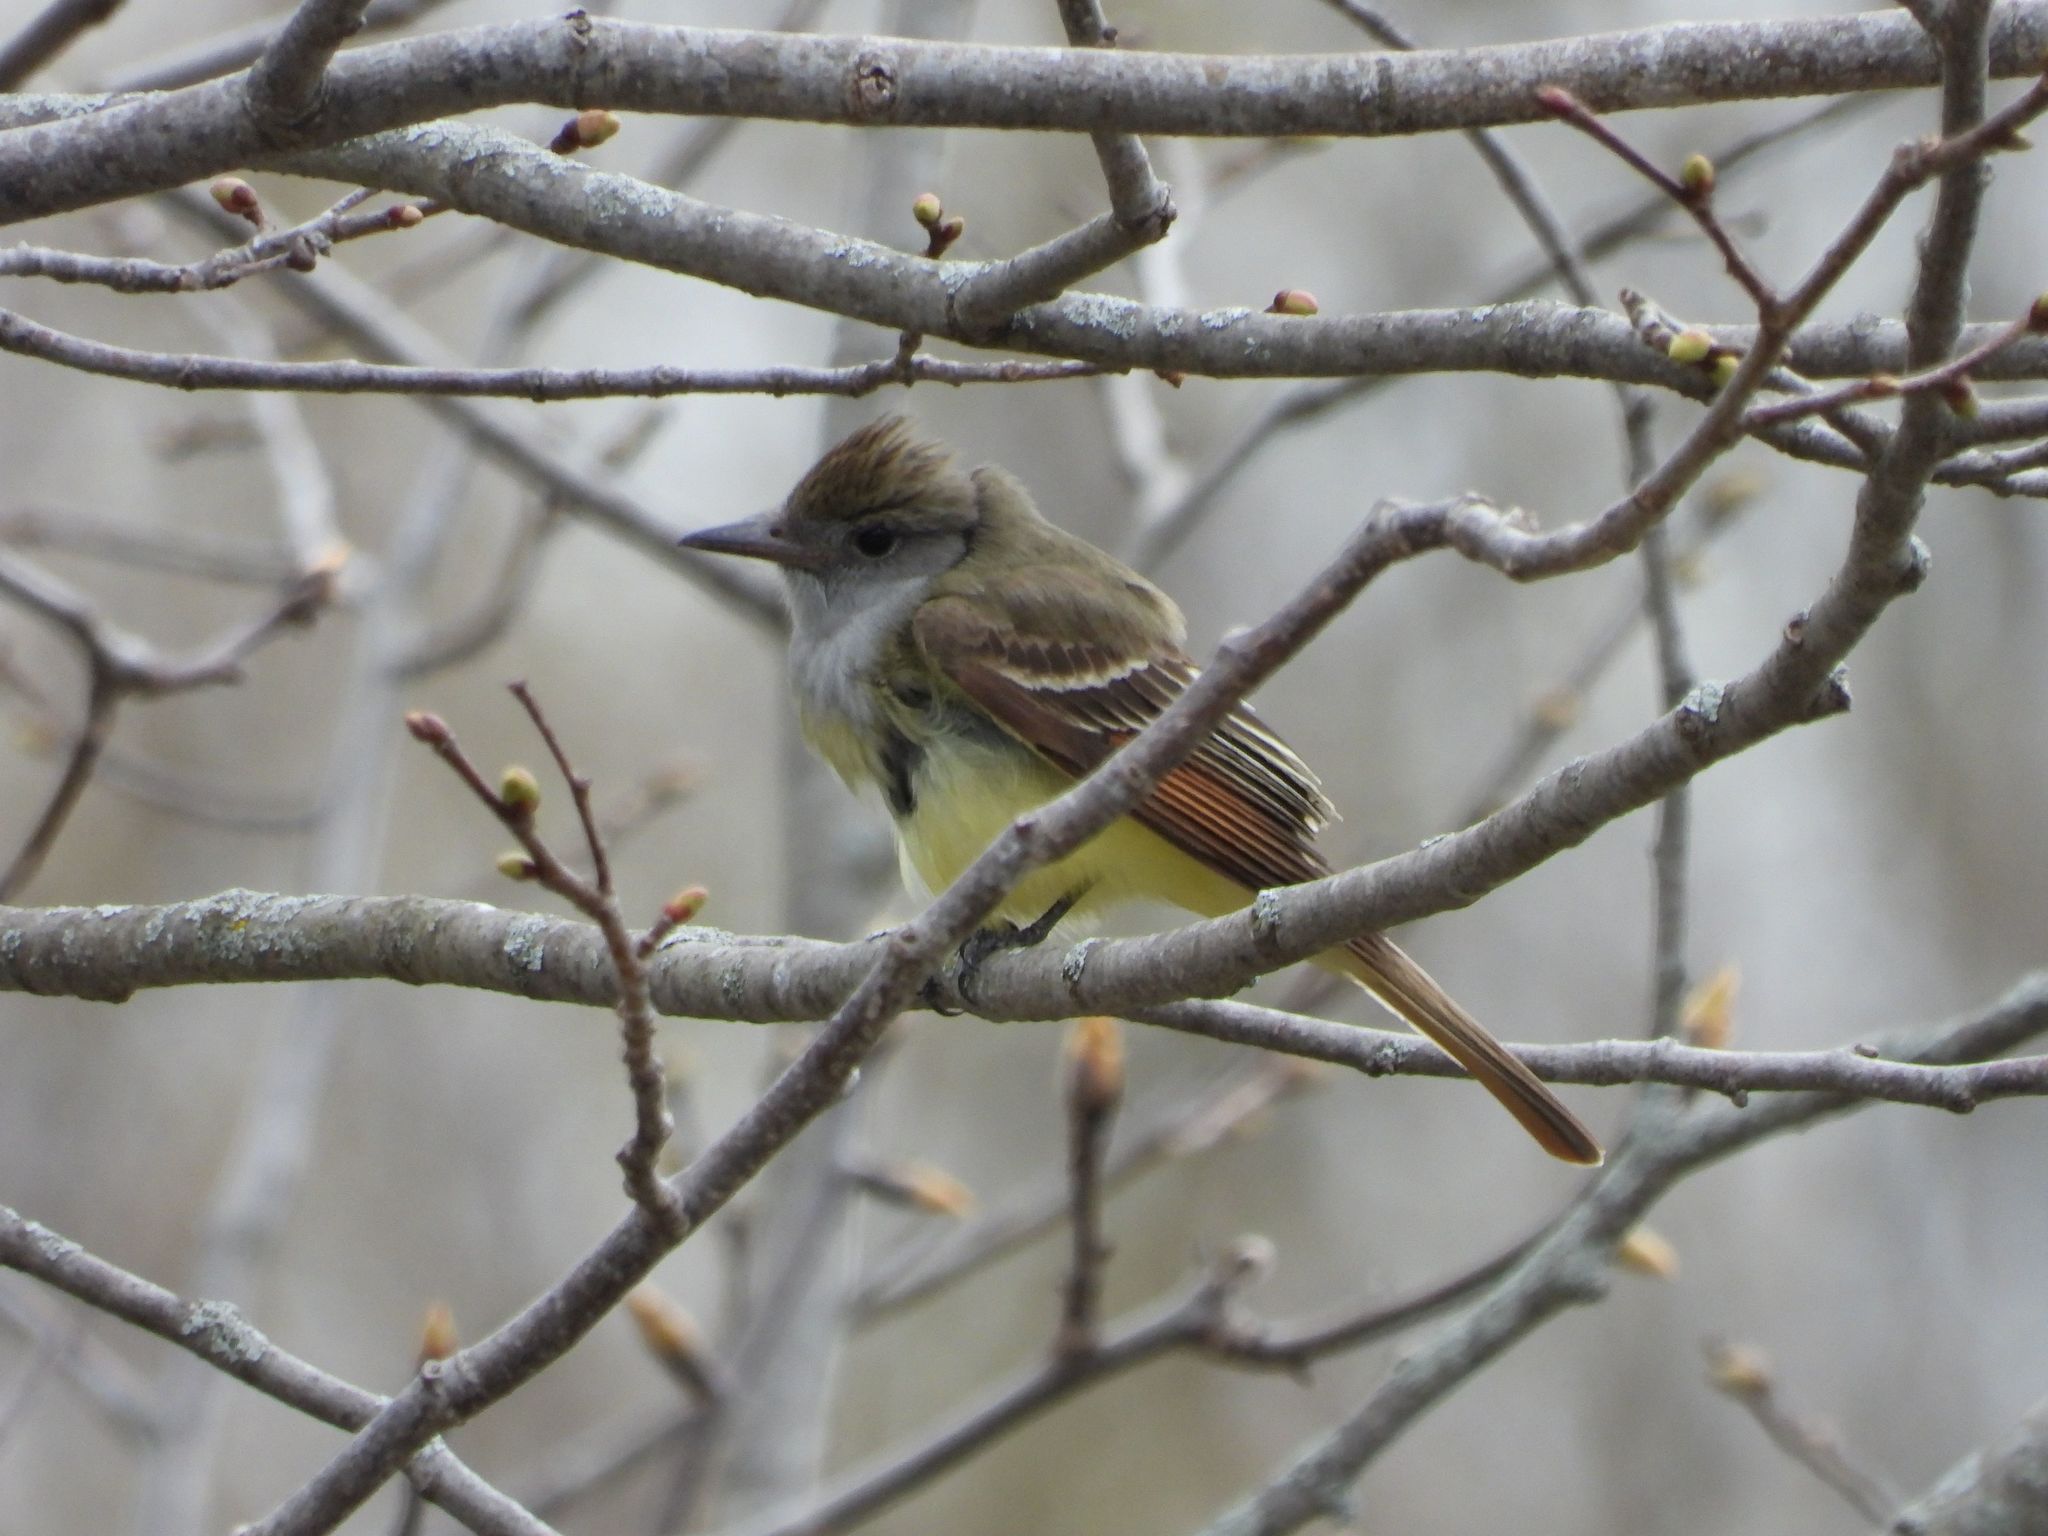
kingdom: Animalia
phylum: Chordata
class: Aves
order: Passeriformes
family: Tyrannidae
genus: Myiarchus
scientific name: Myiarchus crinitus
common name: Great crested flycatcher
